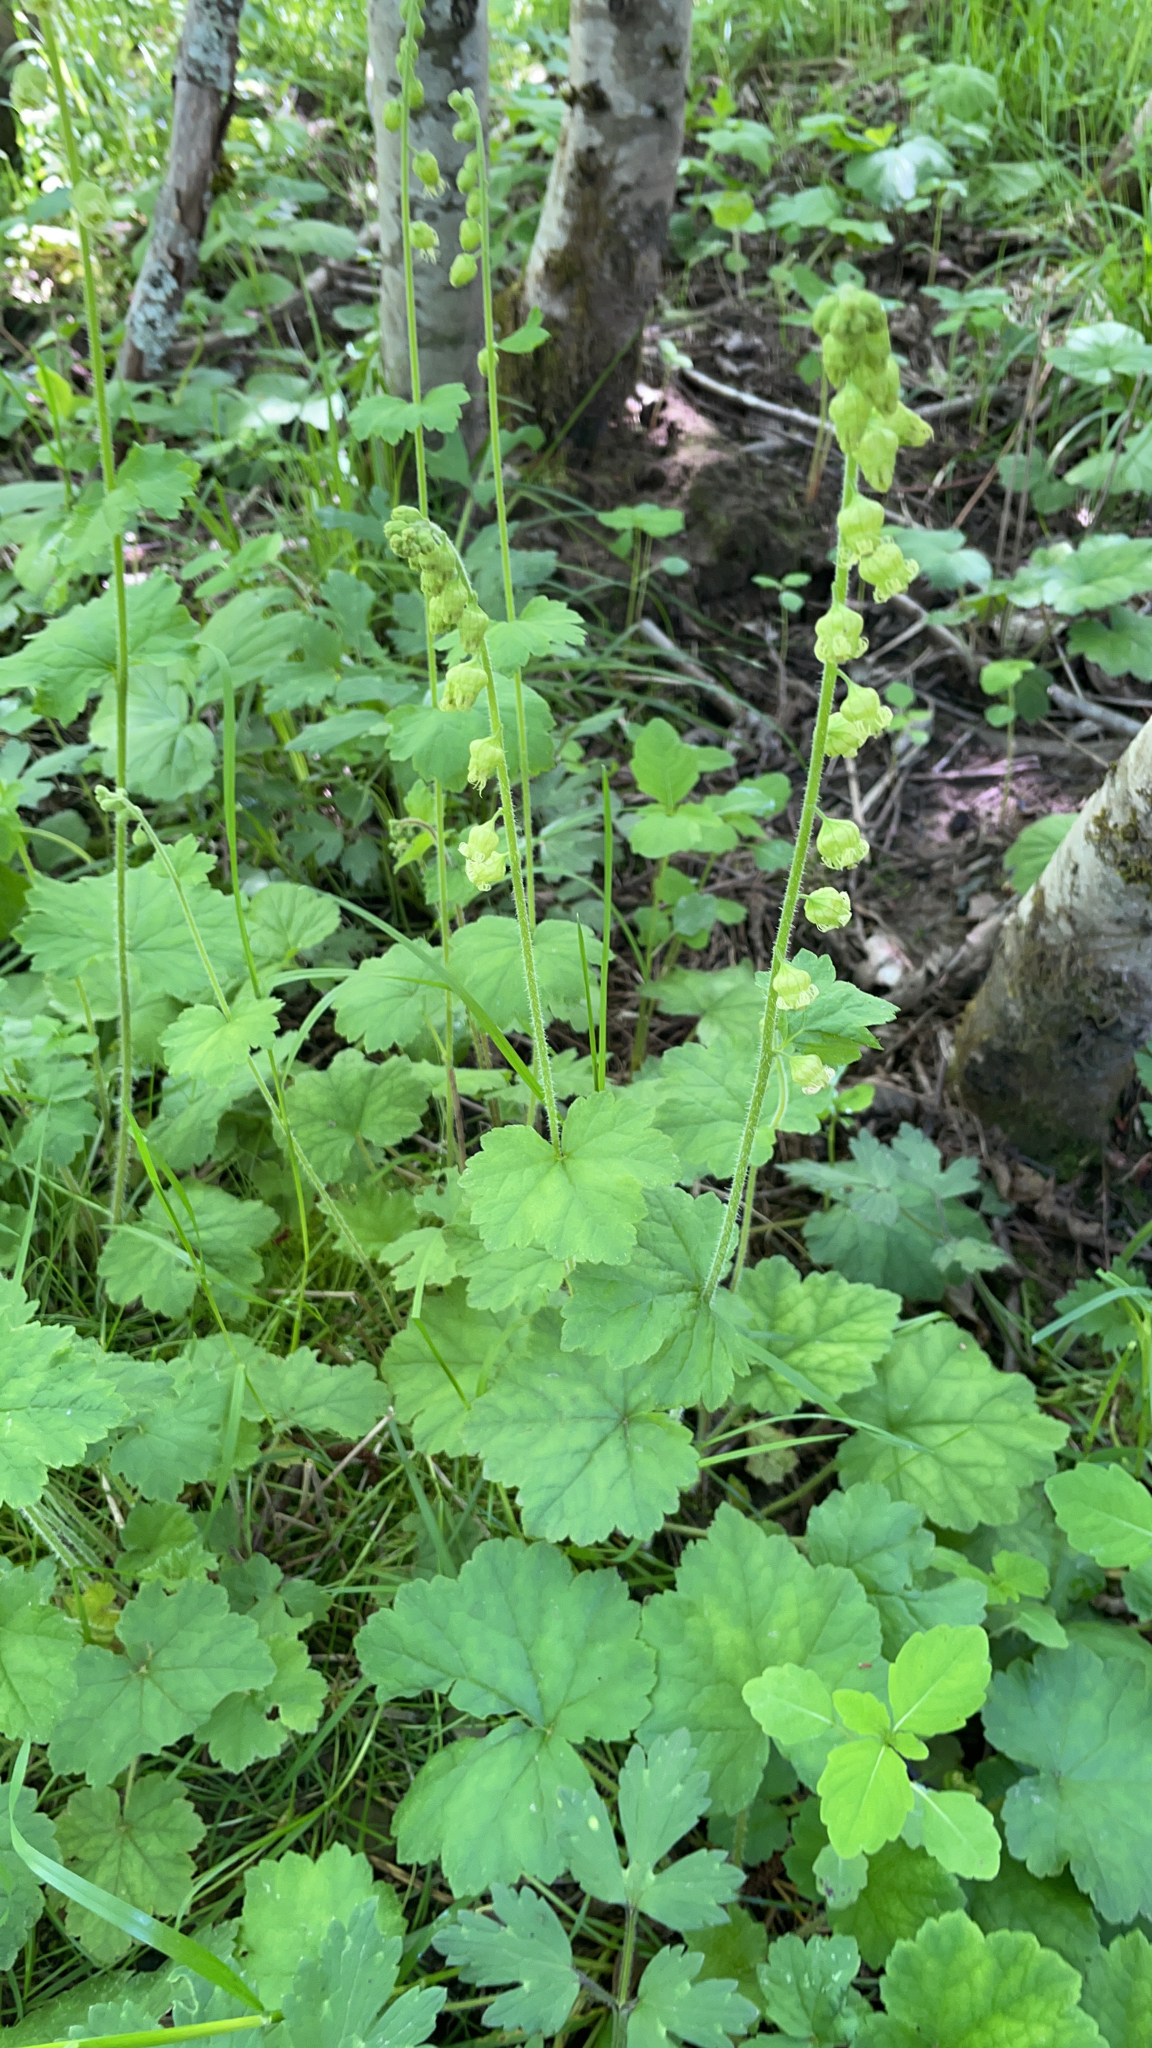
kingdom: Plantae
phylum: Tracheophyta
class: Magnoliopsida
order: Saxifragales
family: Saxifragaceae
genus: Tellima
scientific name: Tellima grandiflora
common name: Fringecups
